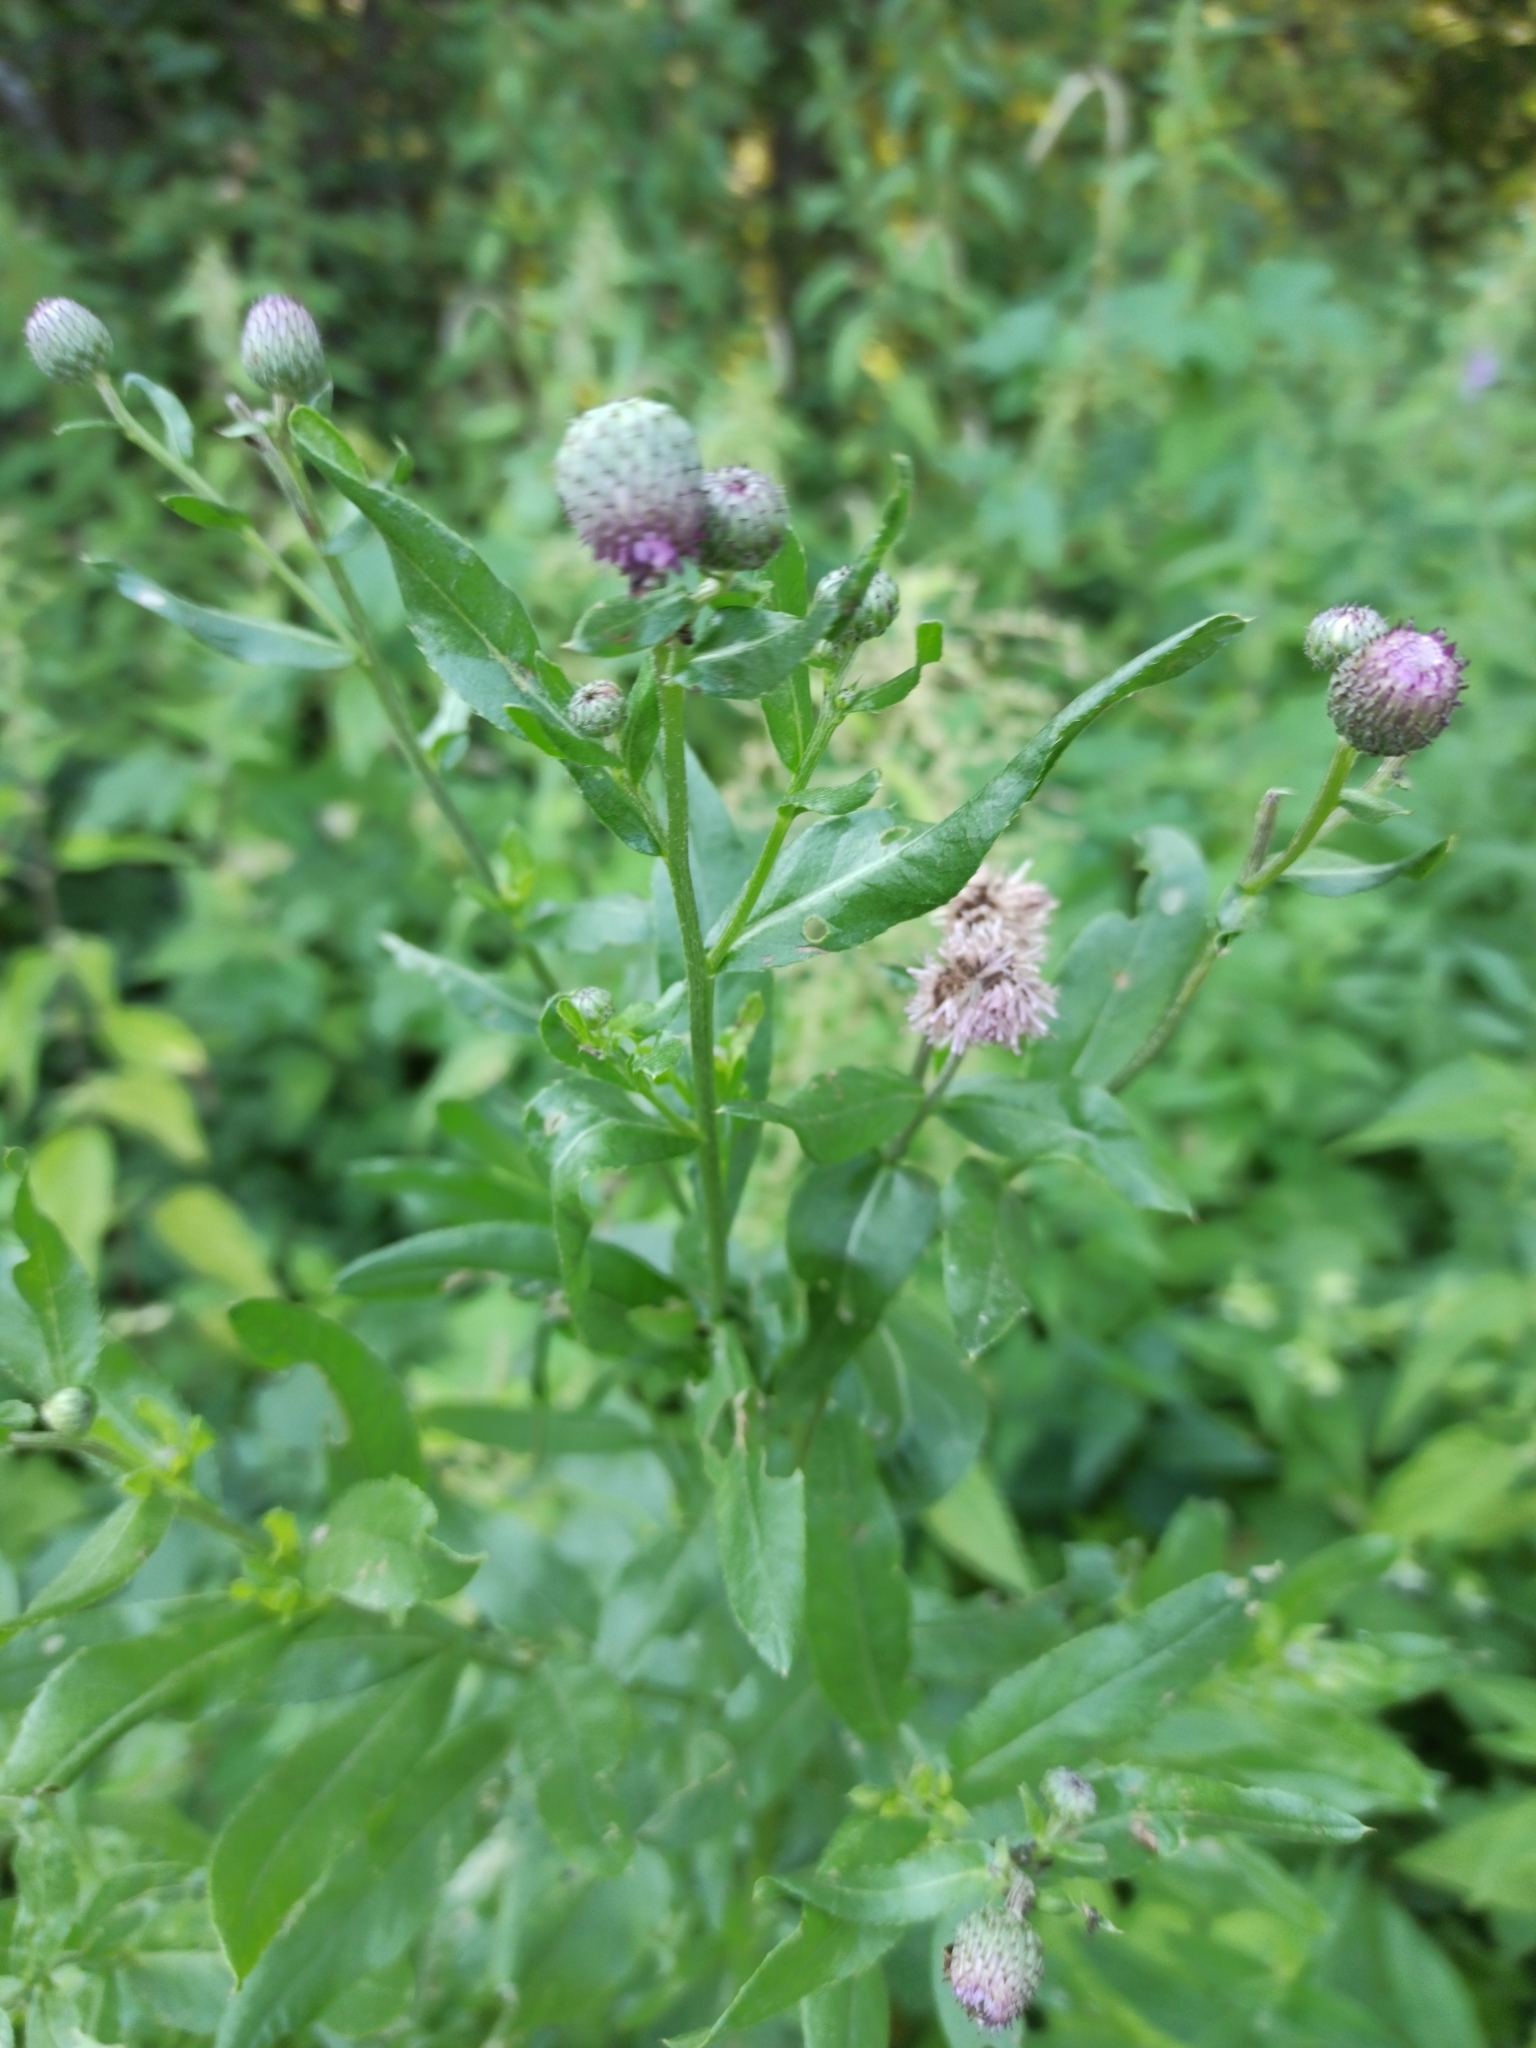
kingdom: Plantae
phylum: Tracheophyta
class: Magnoliopsida
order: Asterales
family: Asteraceae
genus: Cirsium
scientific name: Cirsium arvense
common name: Creeping thistle
